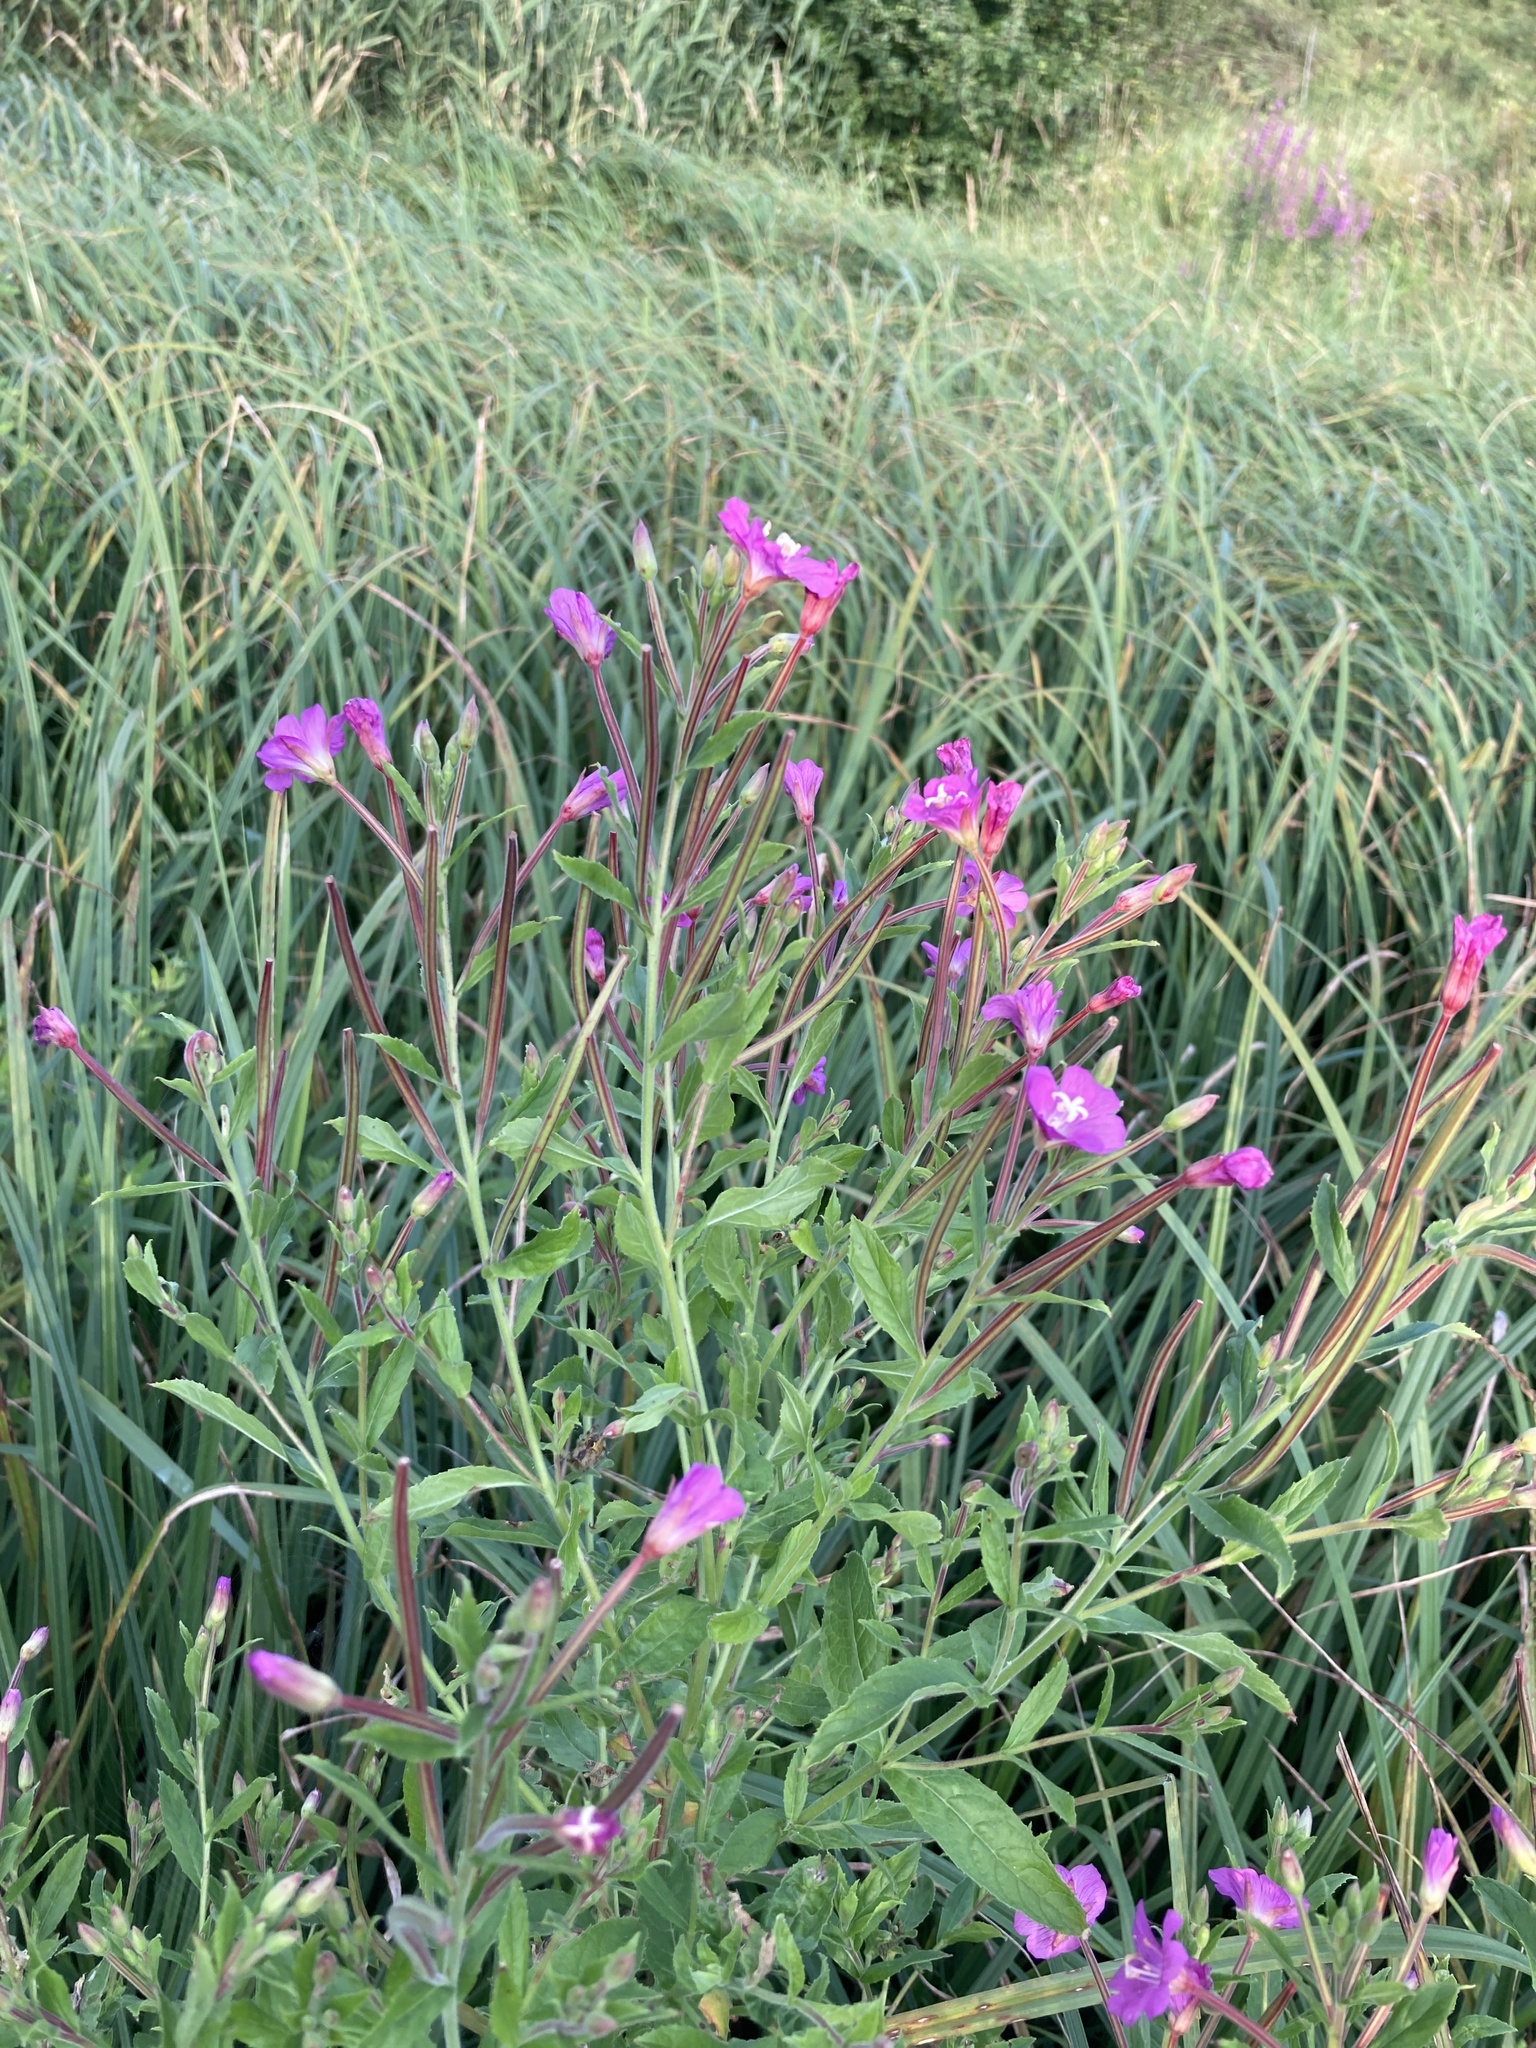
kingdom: Plantae
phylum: Tracheophyta
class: Magnoliopsida
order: Myrtales
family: Onagraceae
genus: Epilobium
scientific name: Epilobium hirsutum
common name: Great willowherb
